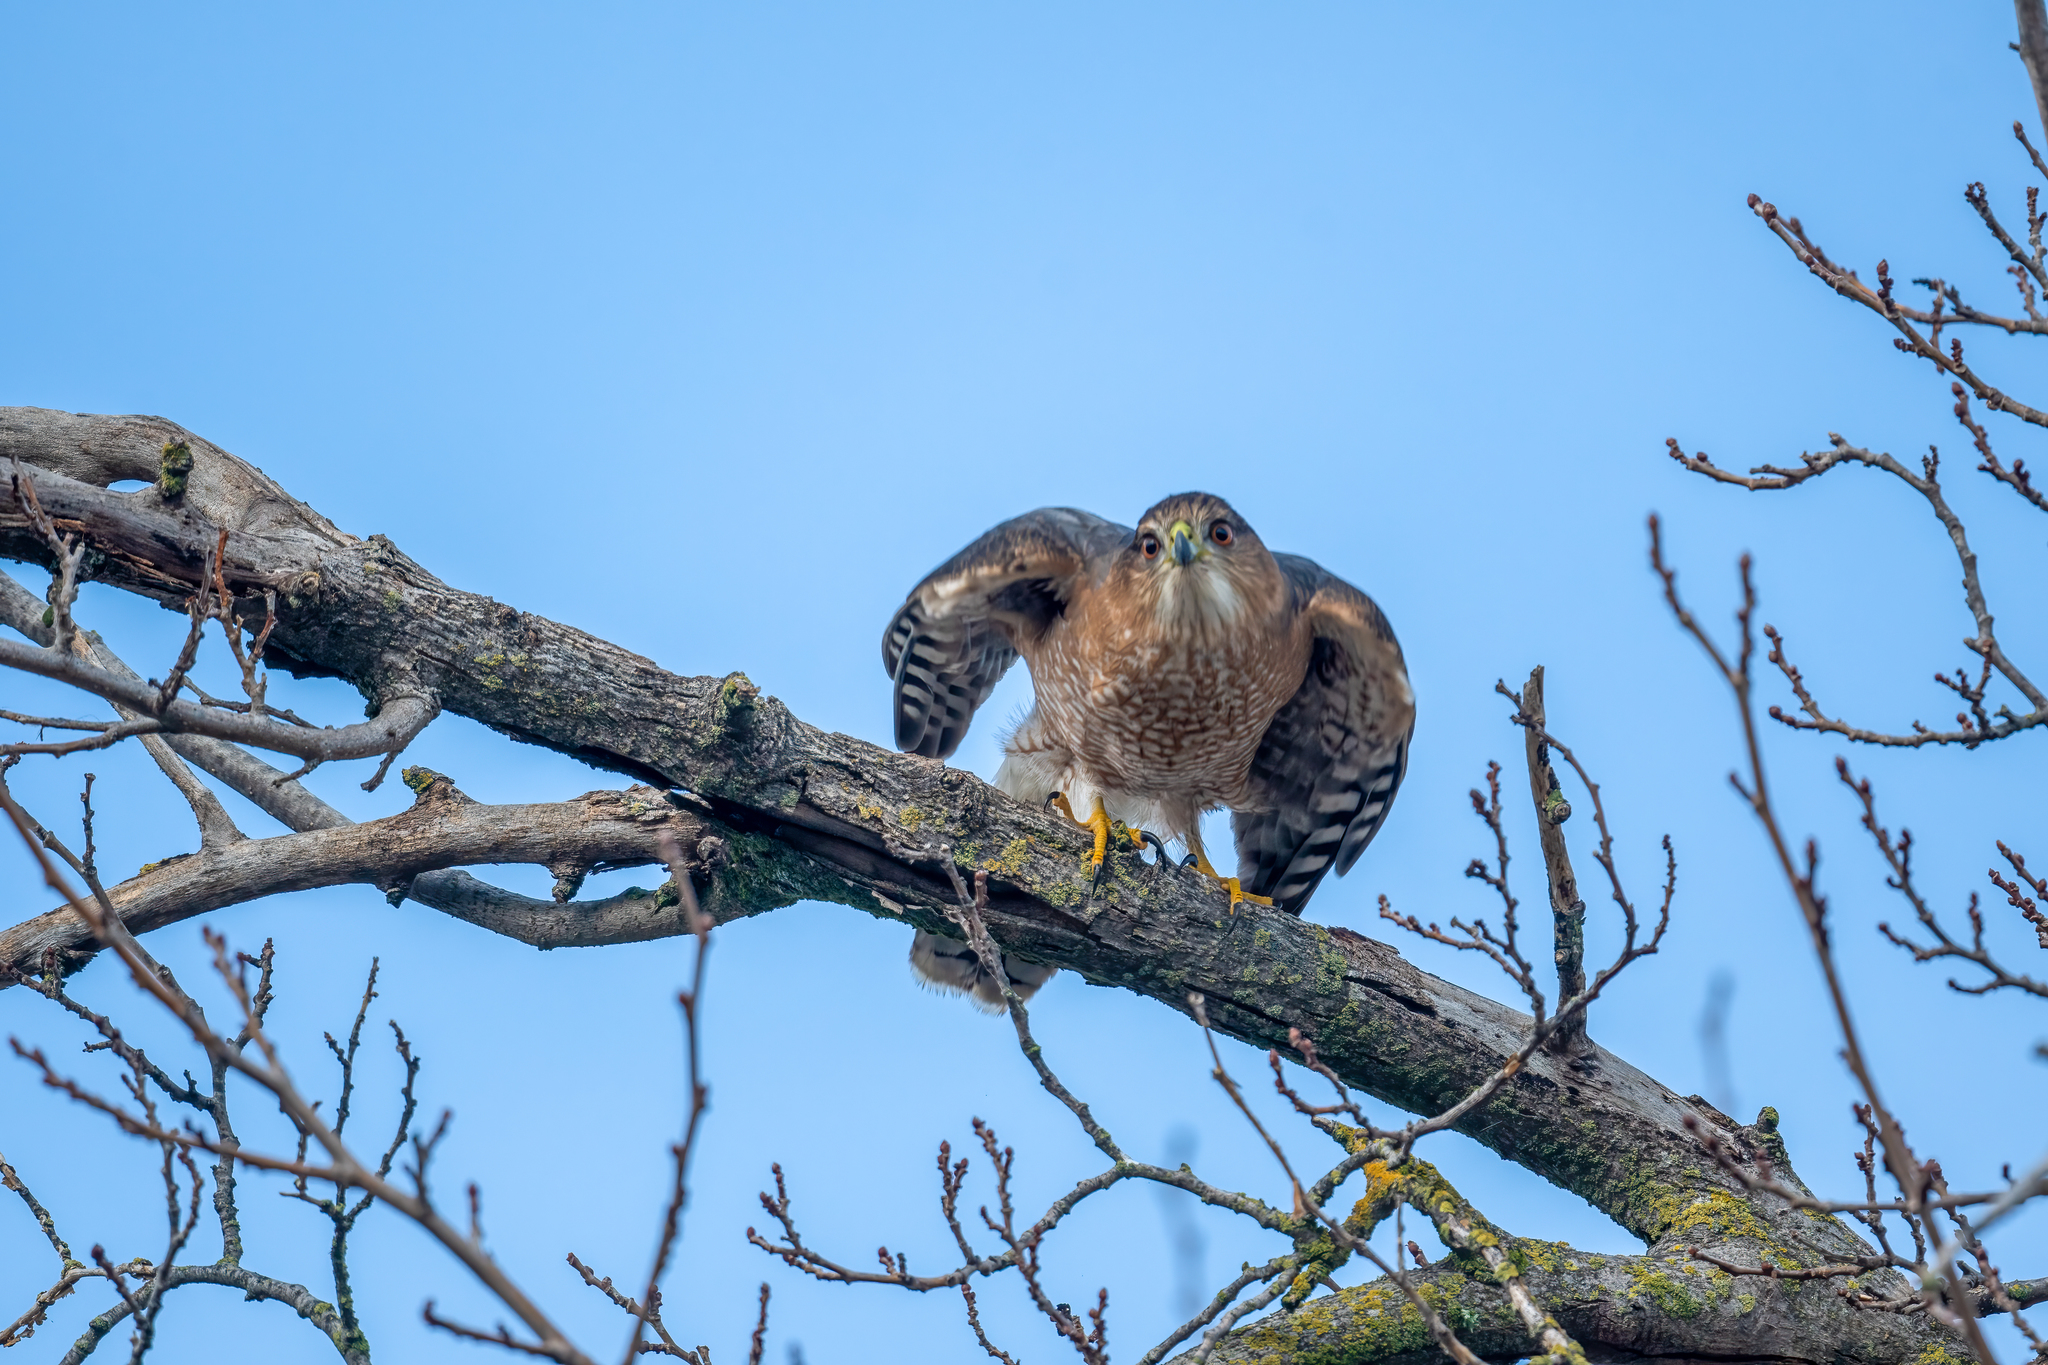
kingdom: Animalia
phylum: Chordata
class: Aves
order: Accipitriformes
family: Accipitridae
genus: Accipiter
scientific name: Accipiter cooperii
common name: Cooper's hawk
